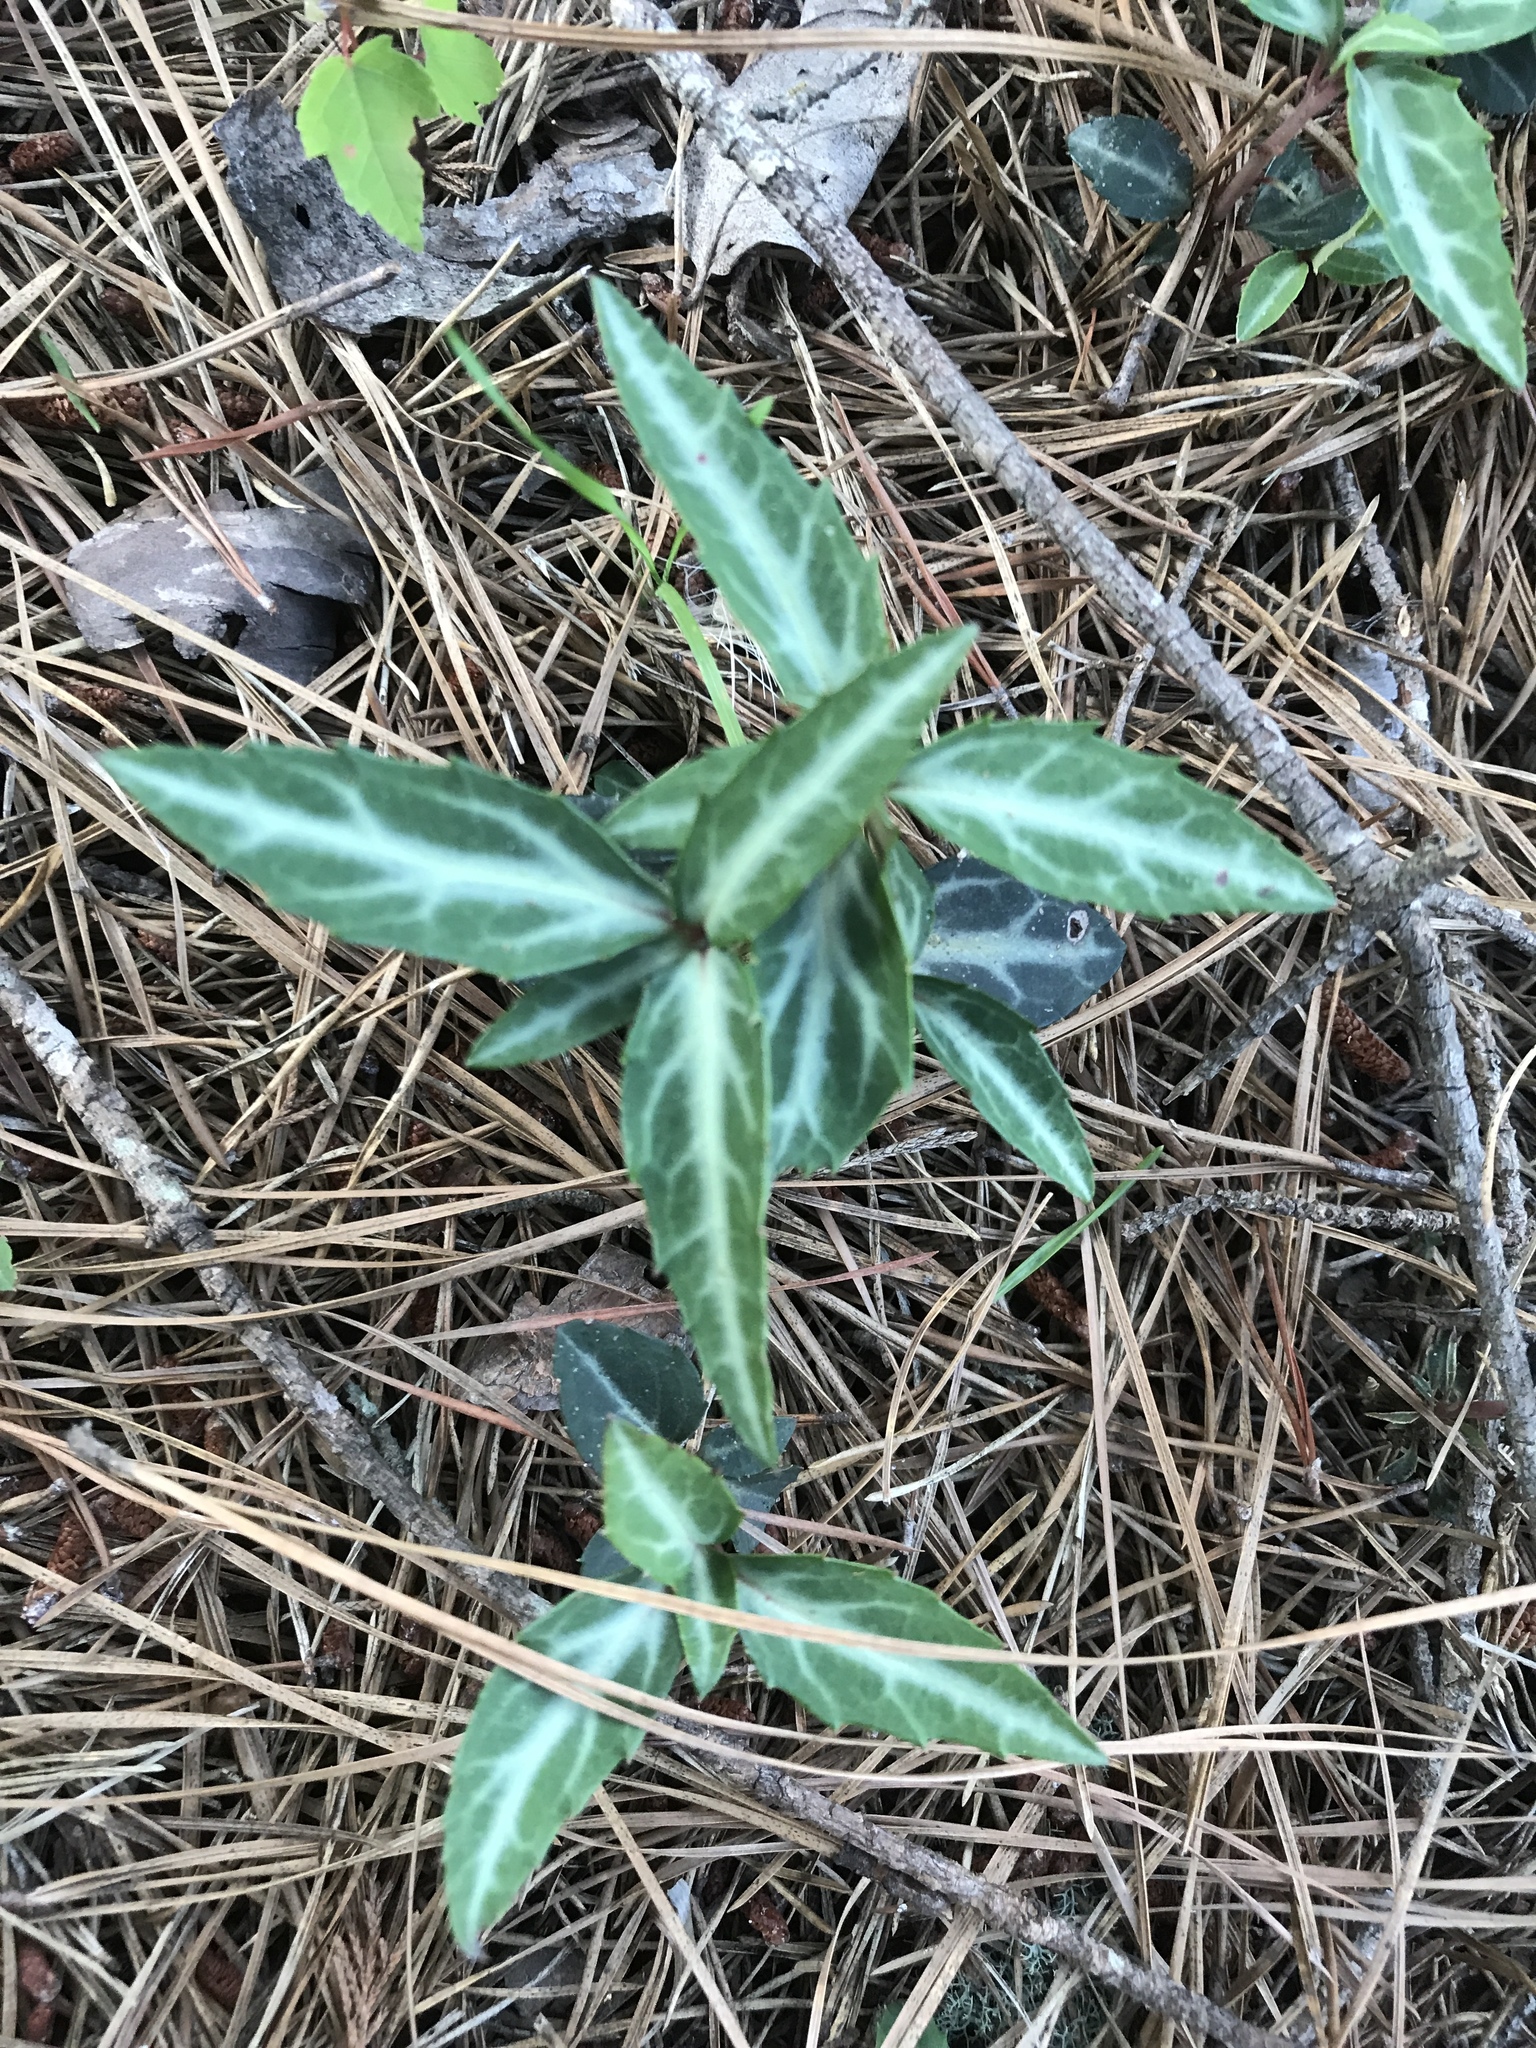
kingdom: Plantae
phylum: Tracheophyta
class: Magnoliopsida
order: Ericales
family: Ericaceae
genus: Chimaphila
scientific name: Chimaphila maculata
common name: Spotted pipsissewa
